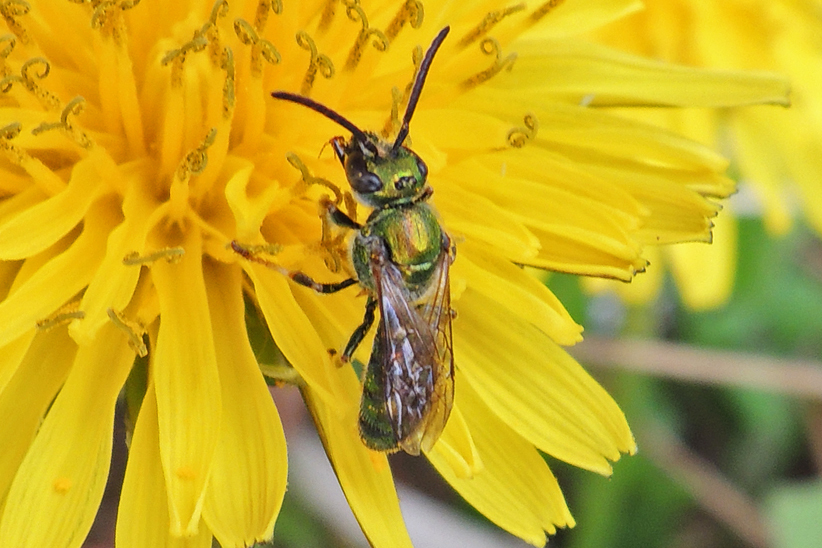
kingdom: Animalia
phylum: Arthropoda
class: Insecta
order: Hymenoptera
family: Halictidae
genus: Augochlora
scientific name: Augochlora pura
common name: Pure green sweat bee
